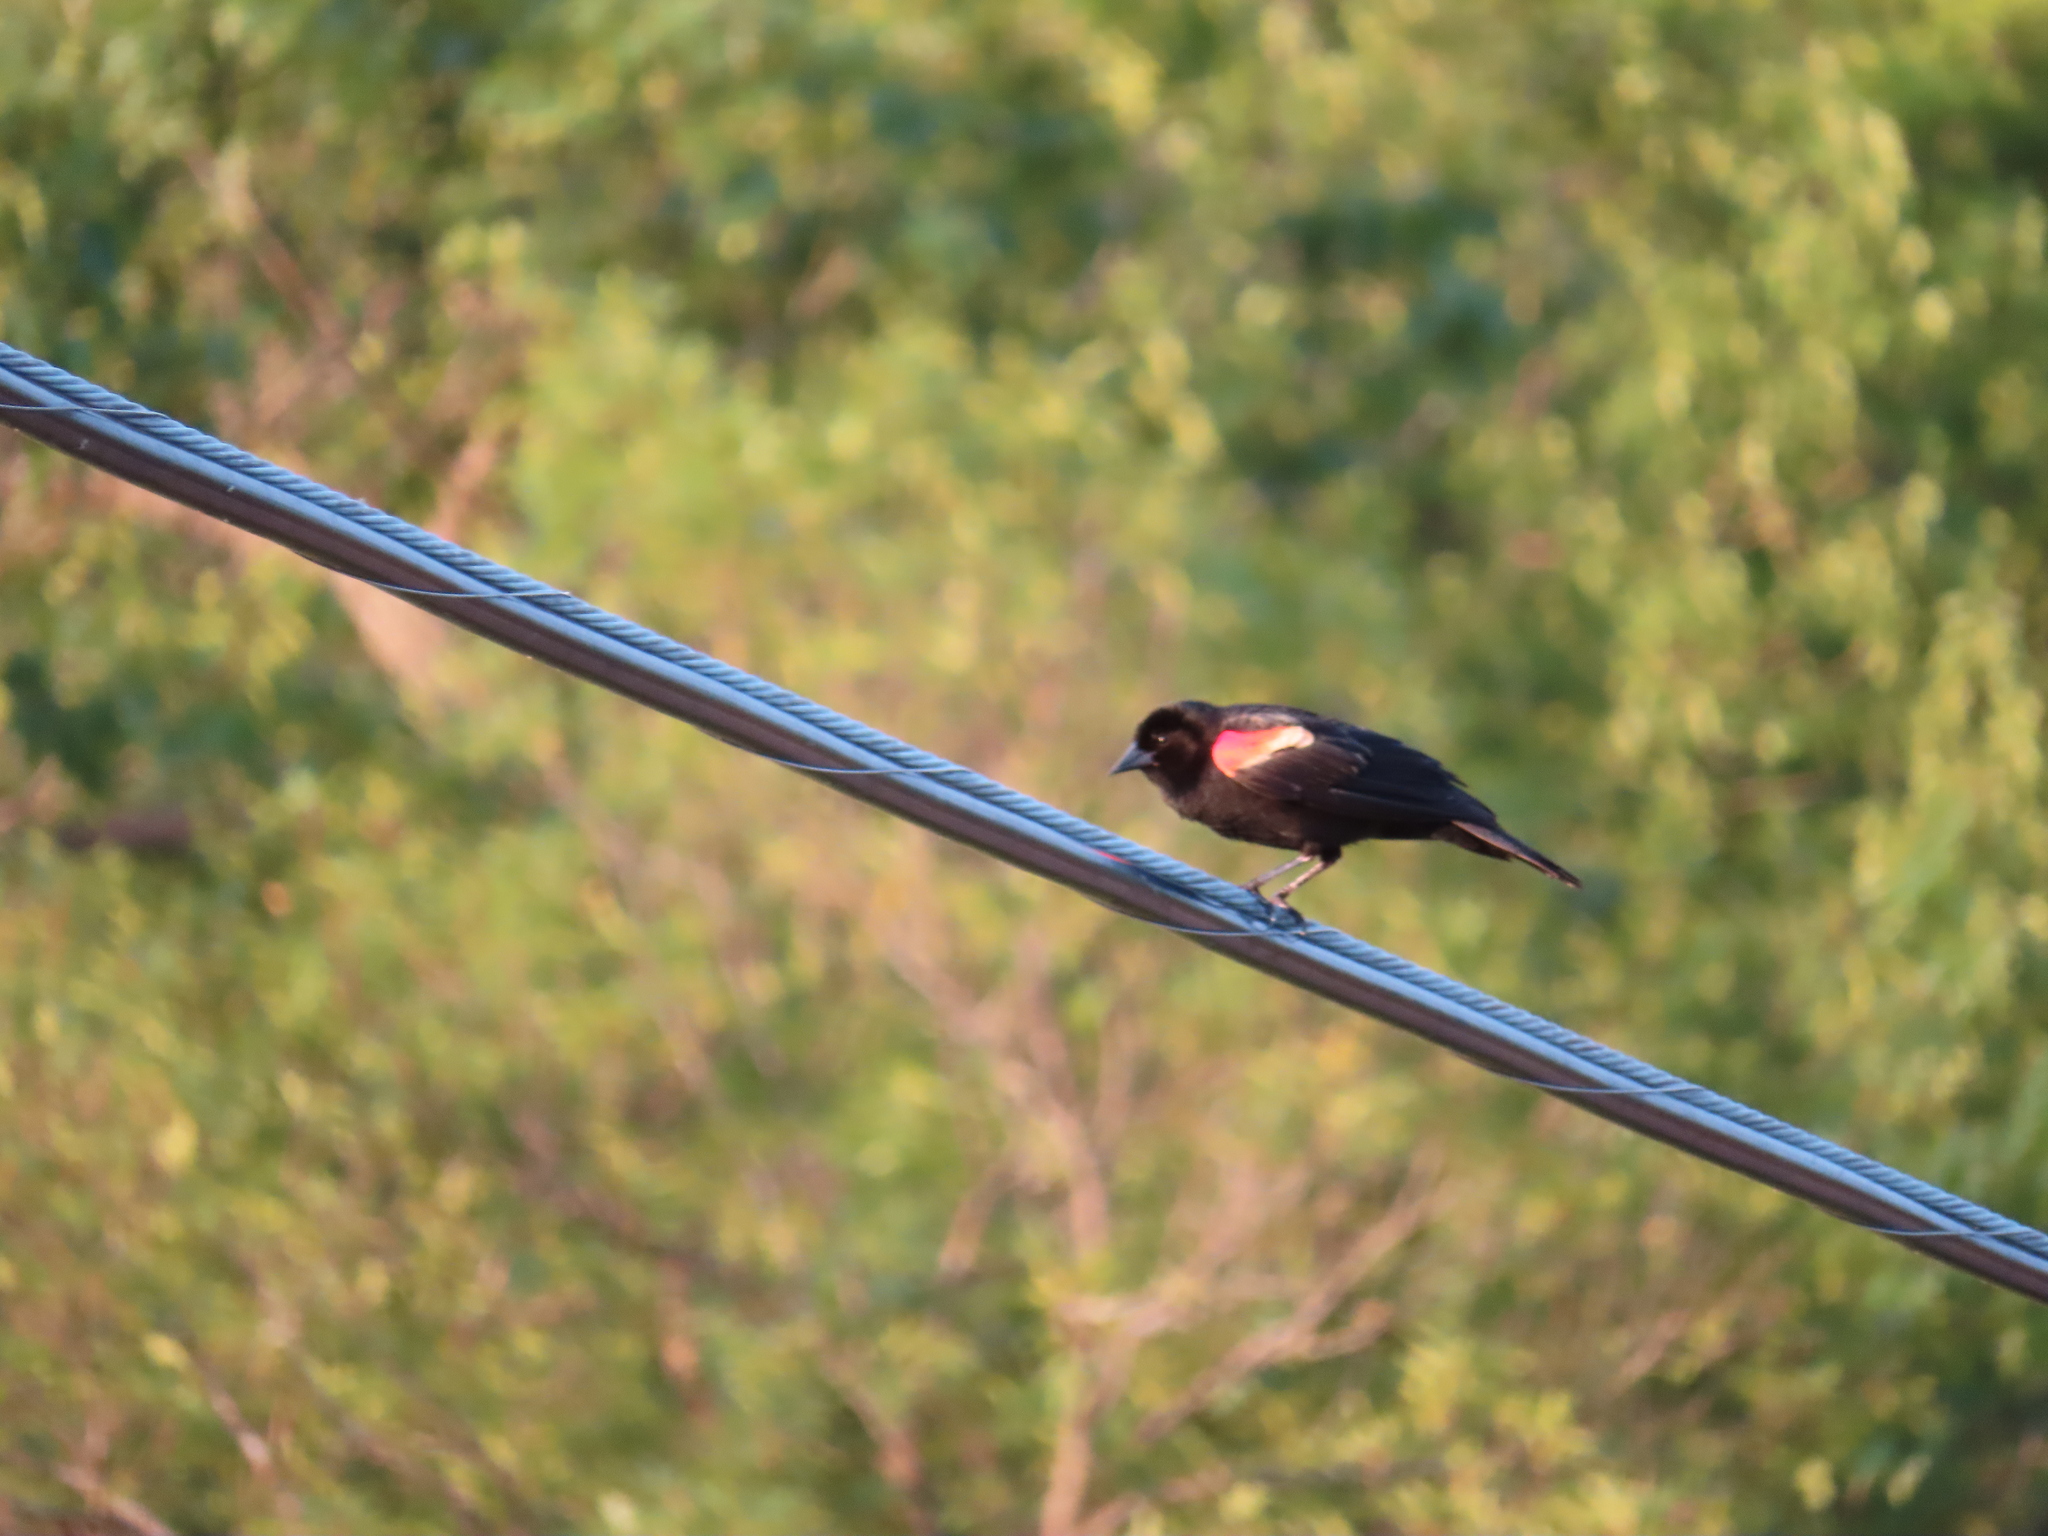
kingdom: Animalia
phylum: Chordata
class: Aves
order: Passeriformes
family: Icteridae
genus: Agelaius
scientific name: Agelaius phoeniceus
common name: Red-winged blackbird
